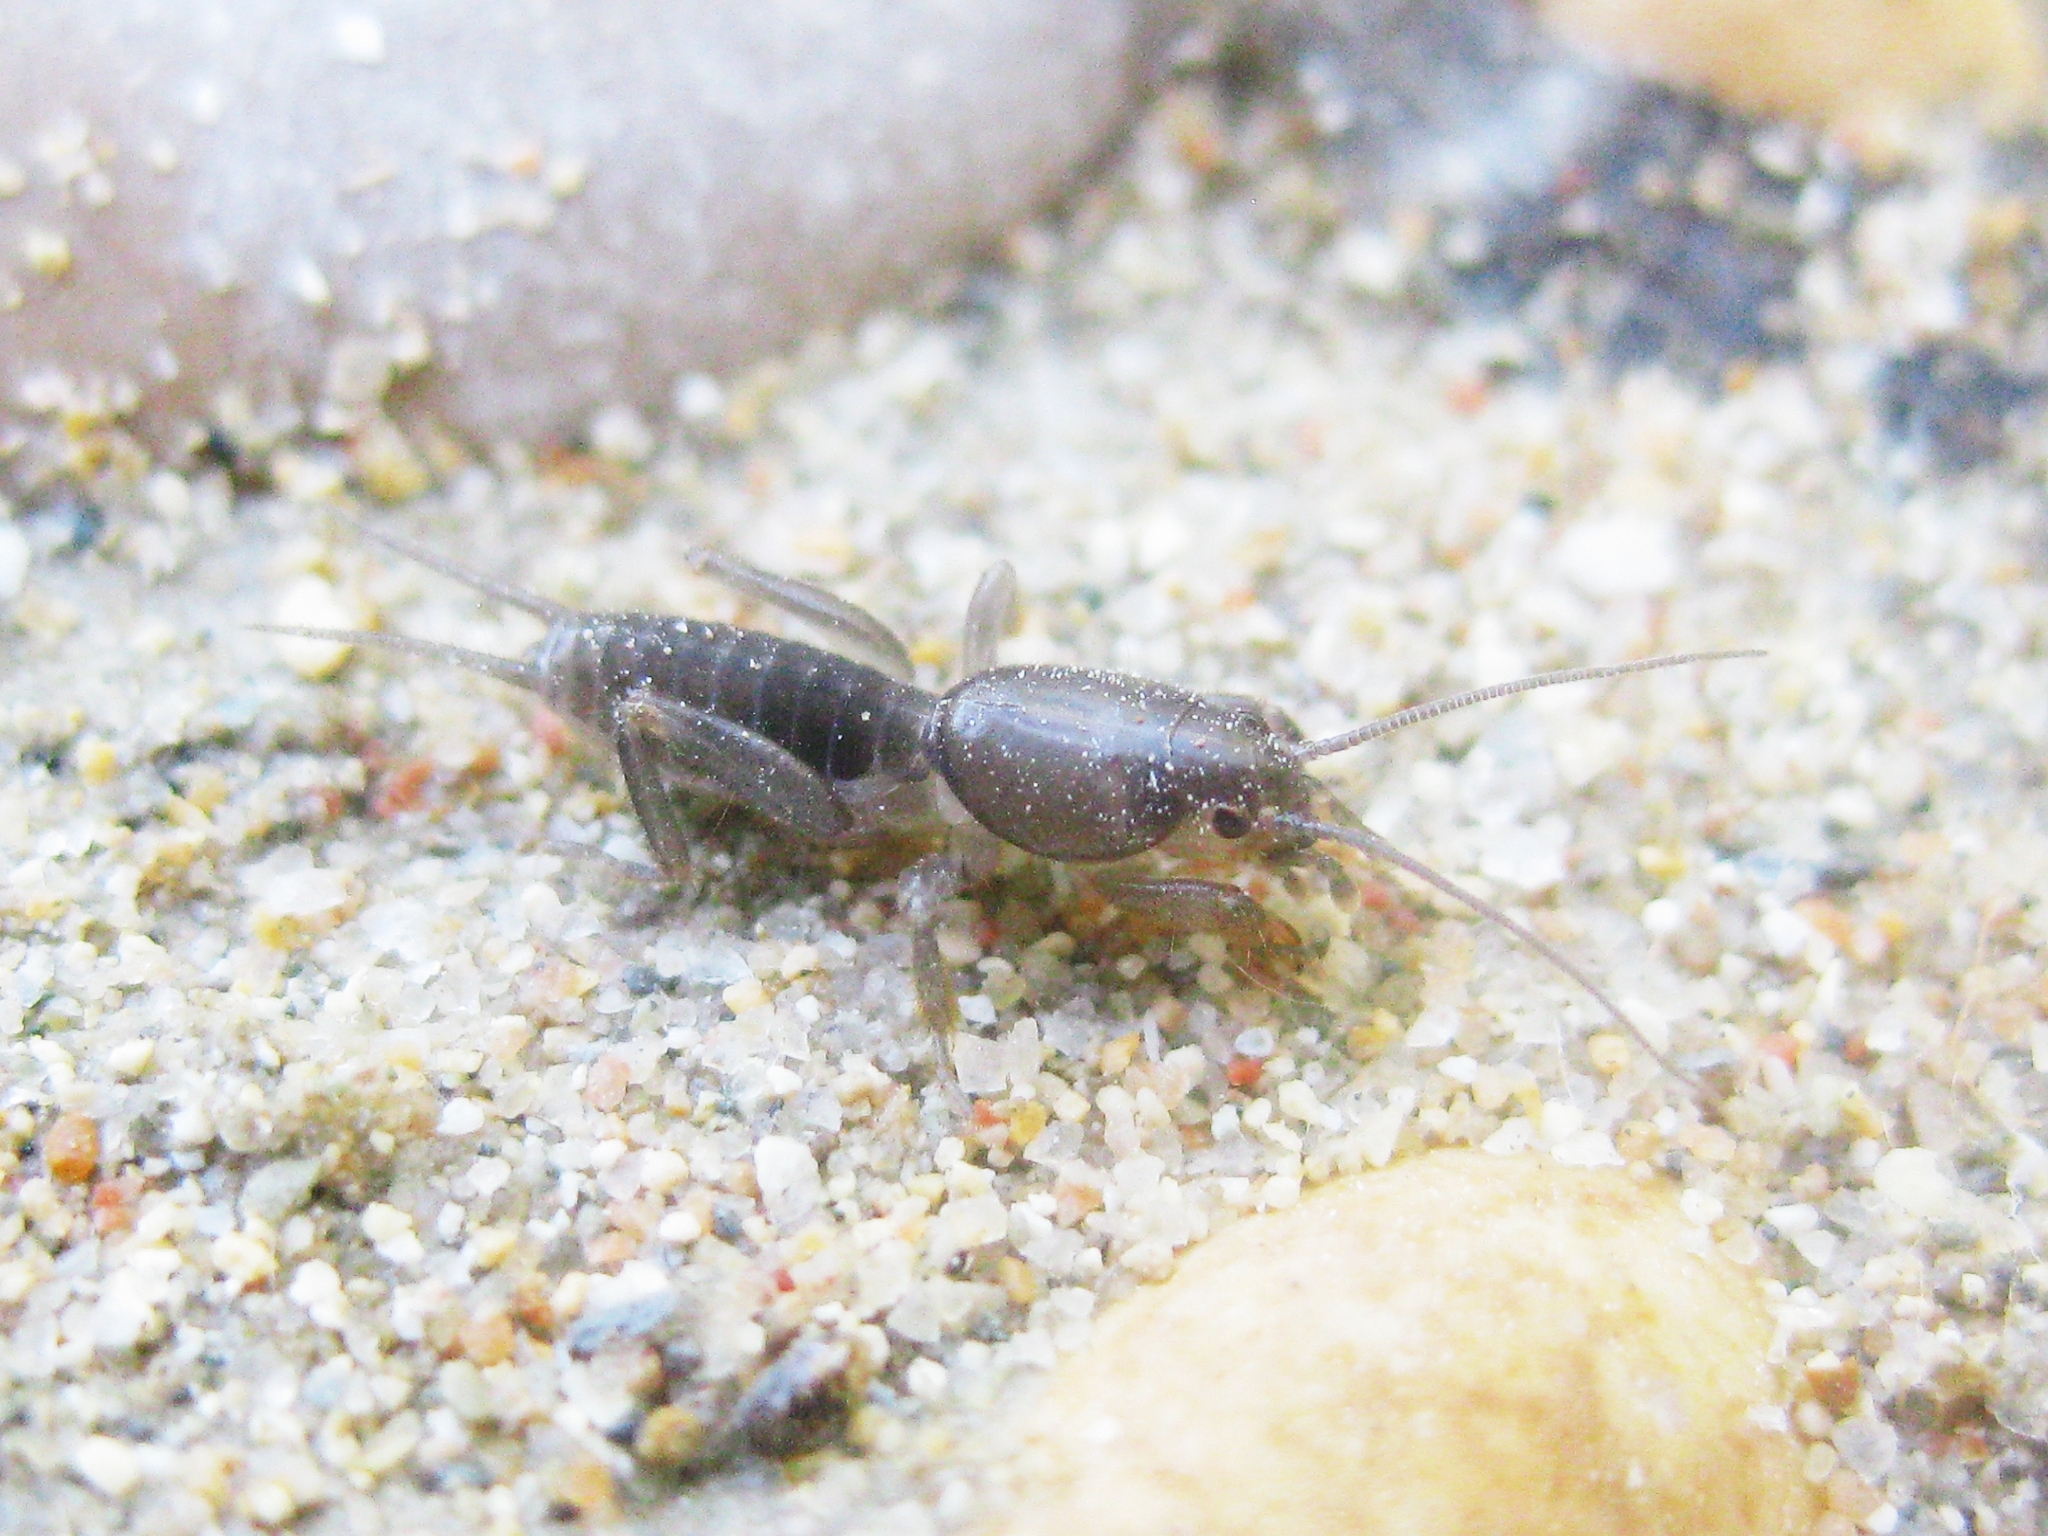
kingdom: Animalia
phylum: Arthropoda
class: Insecta
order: Orthoptera
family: Gryllotalpidae
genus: Gryllotalpa
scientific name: Gryllotalpa
